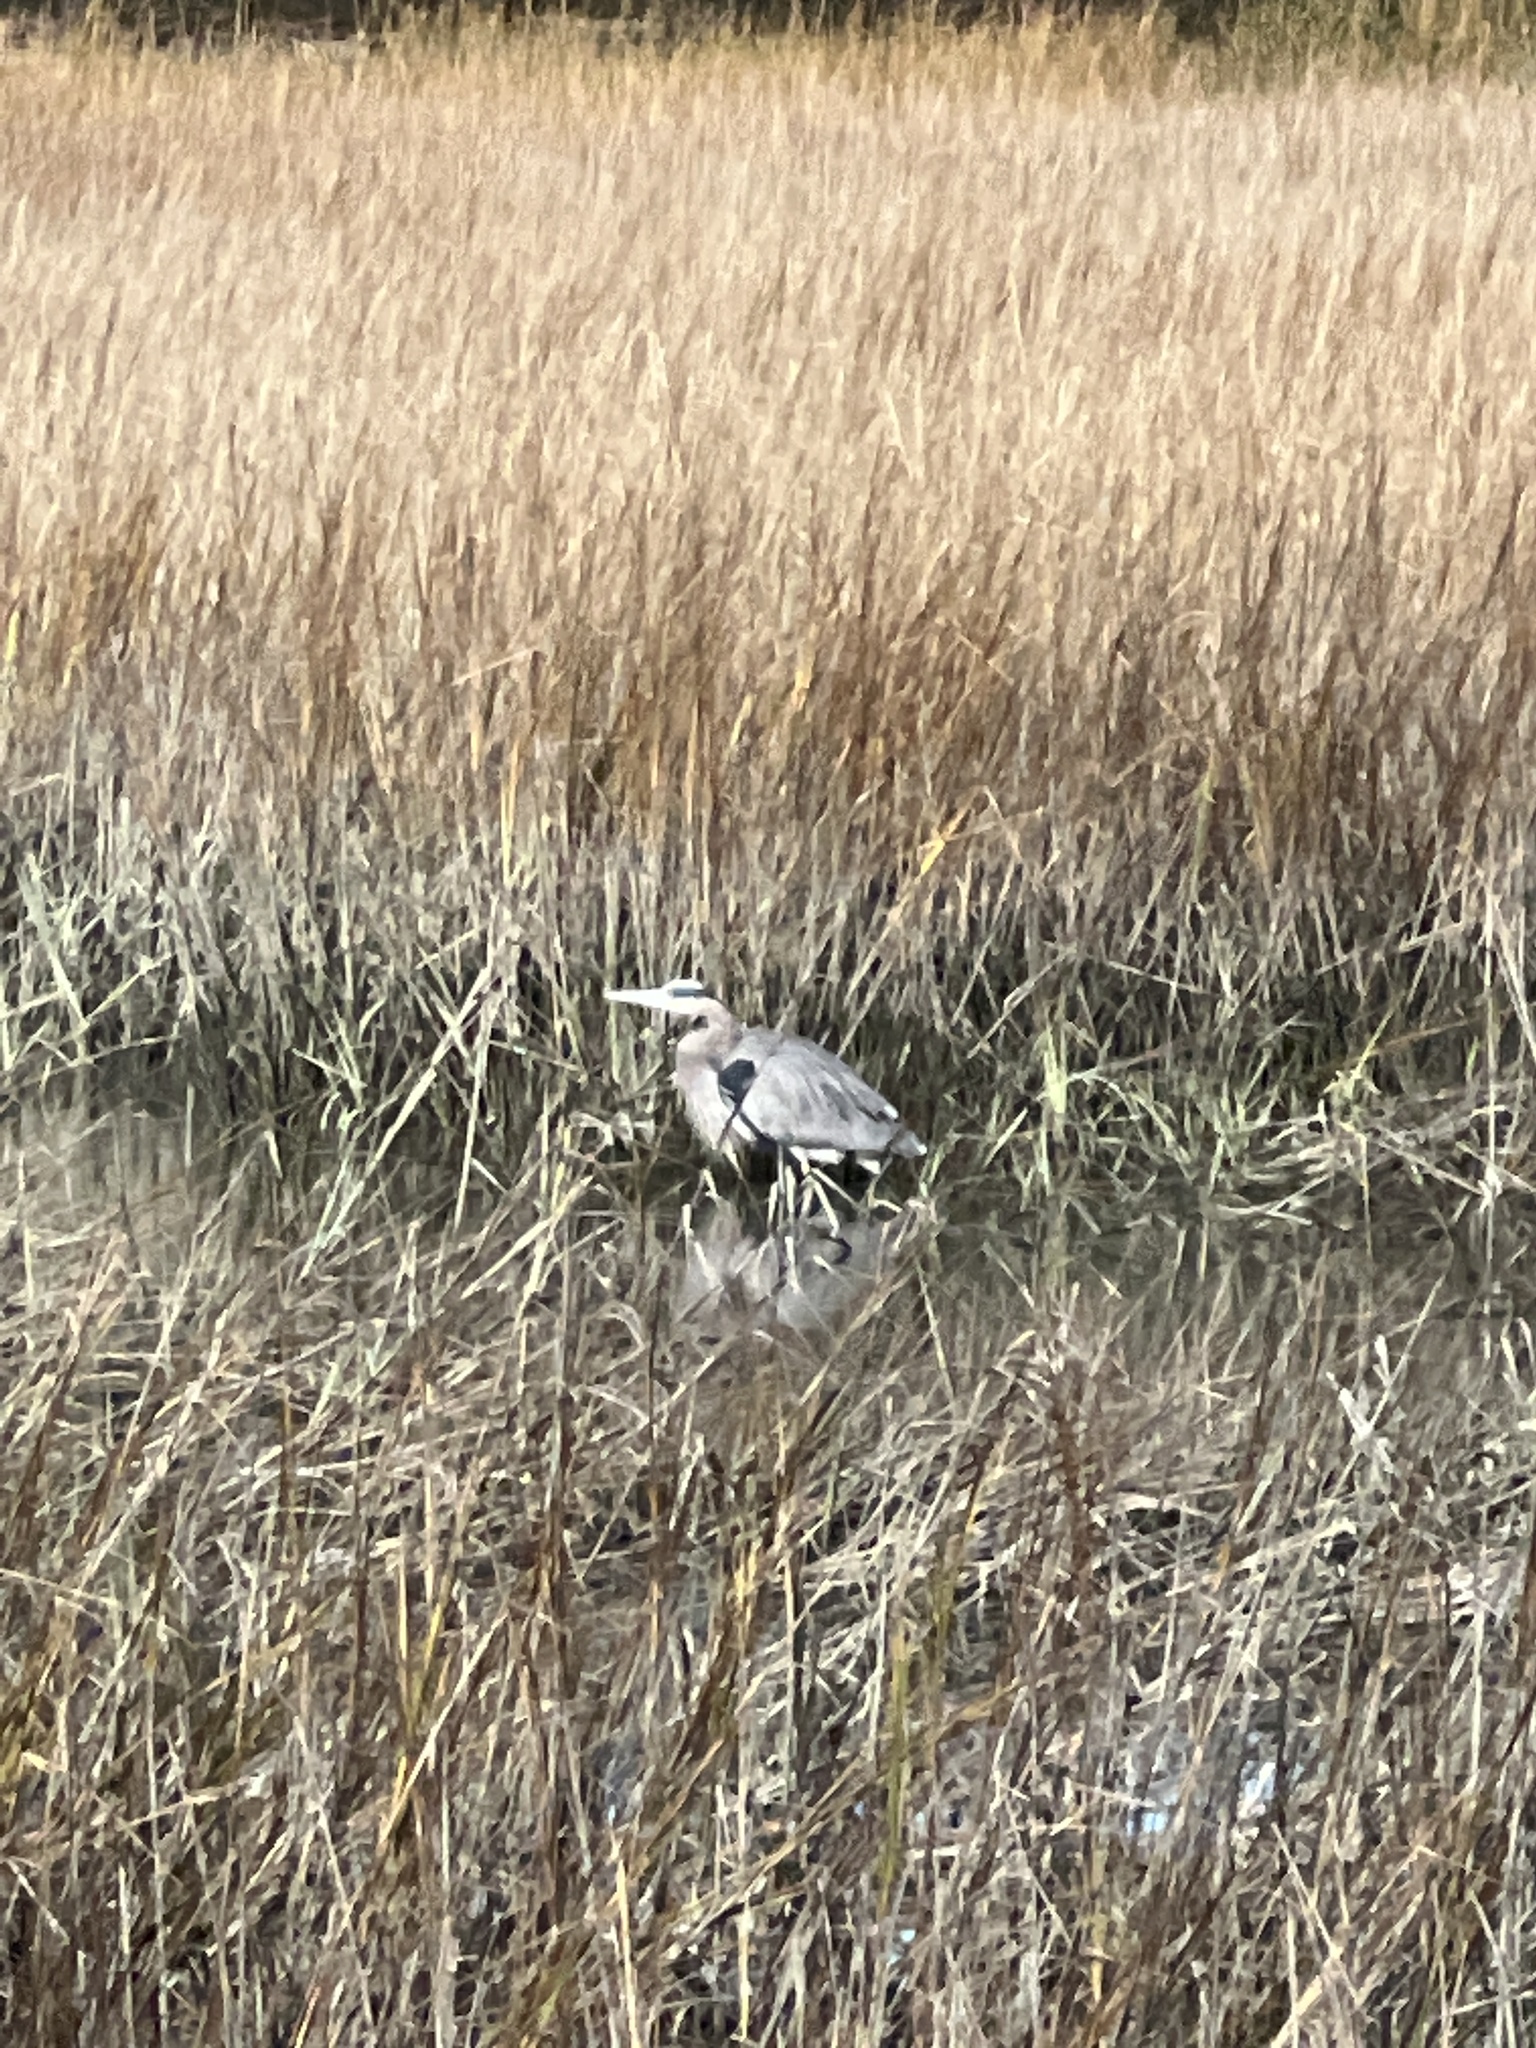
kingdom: Animalia
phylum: Chordata
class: Aves
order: Pelecaniformes
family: Ardeidae
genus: Ardea
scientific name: Ardea herodias
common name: Great blue heron
